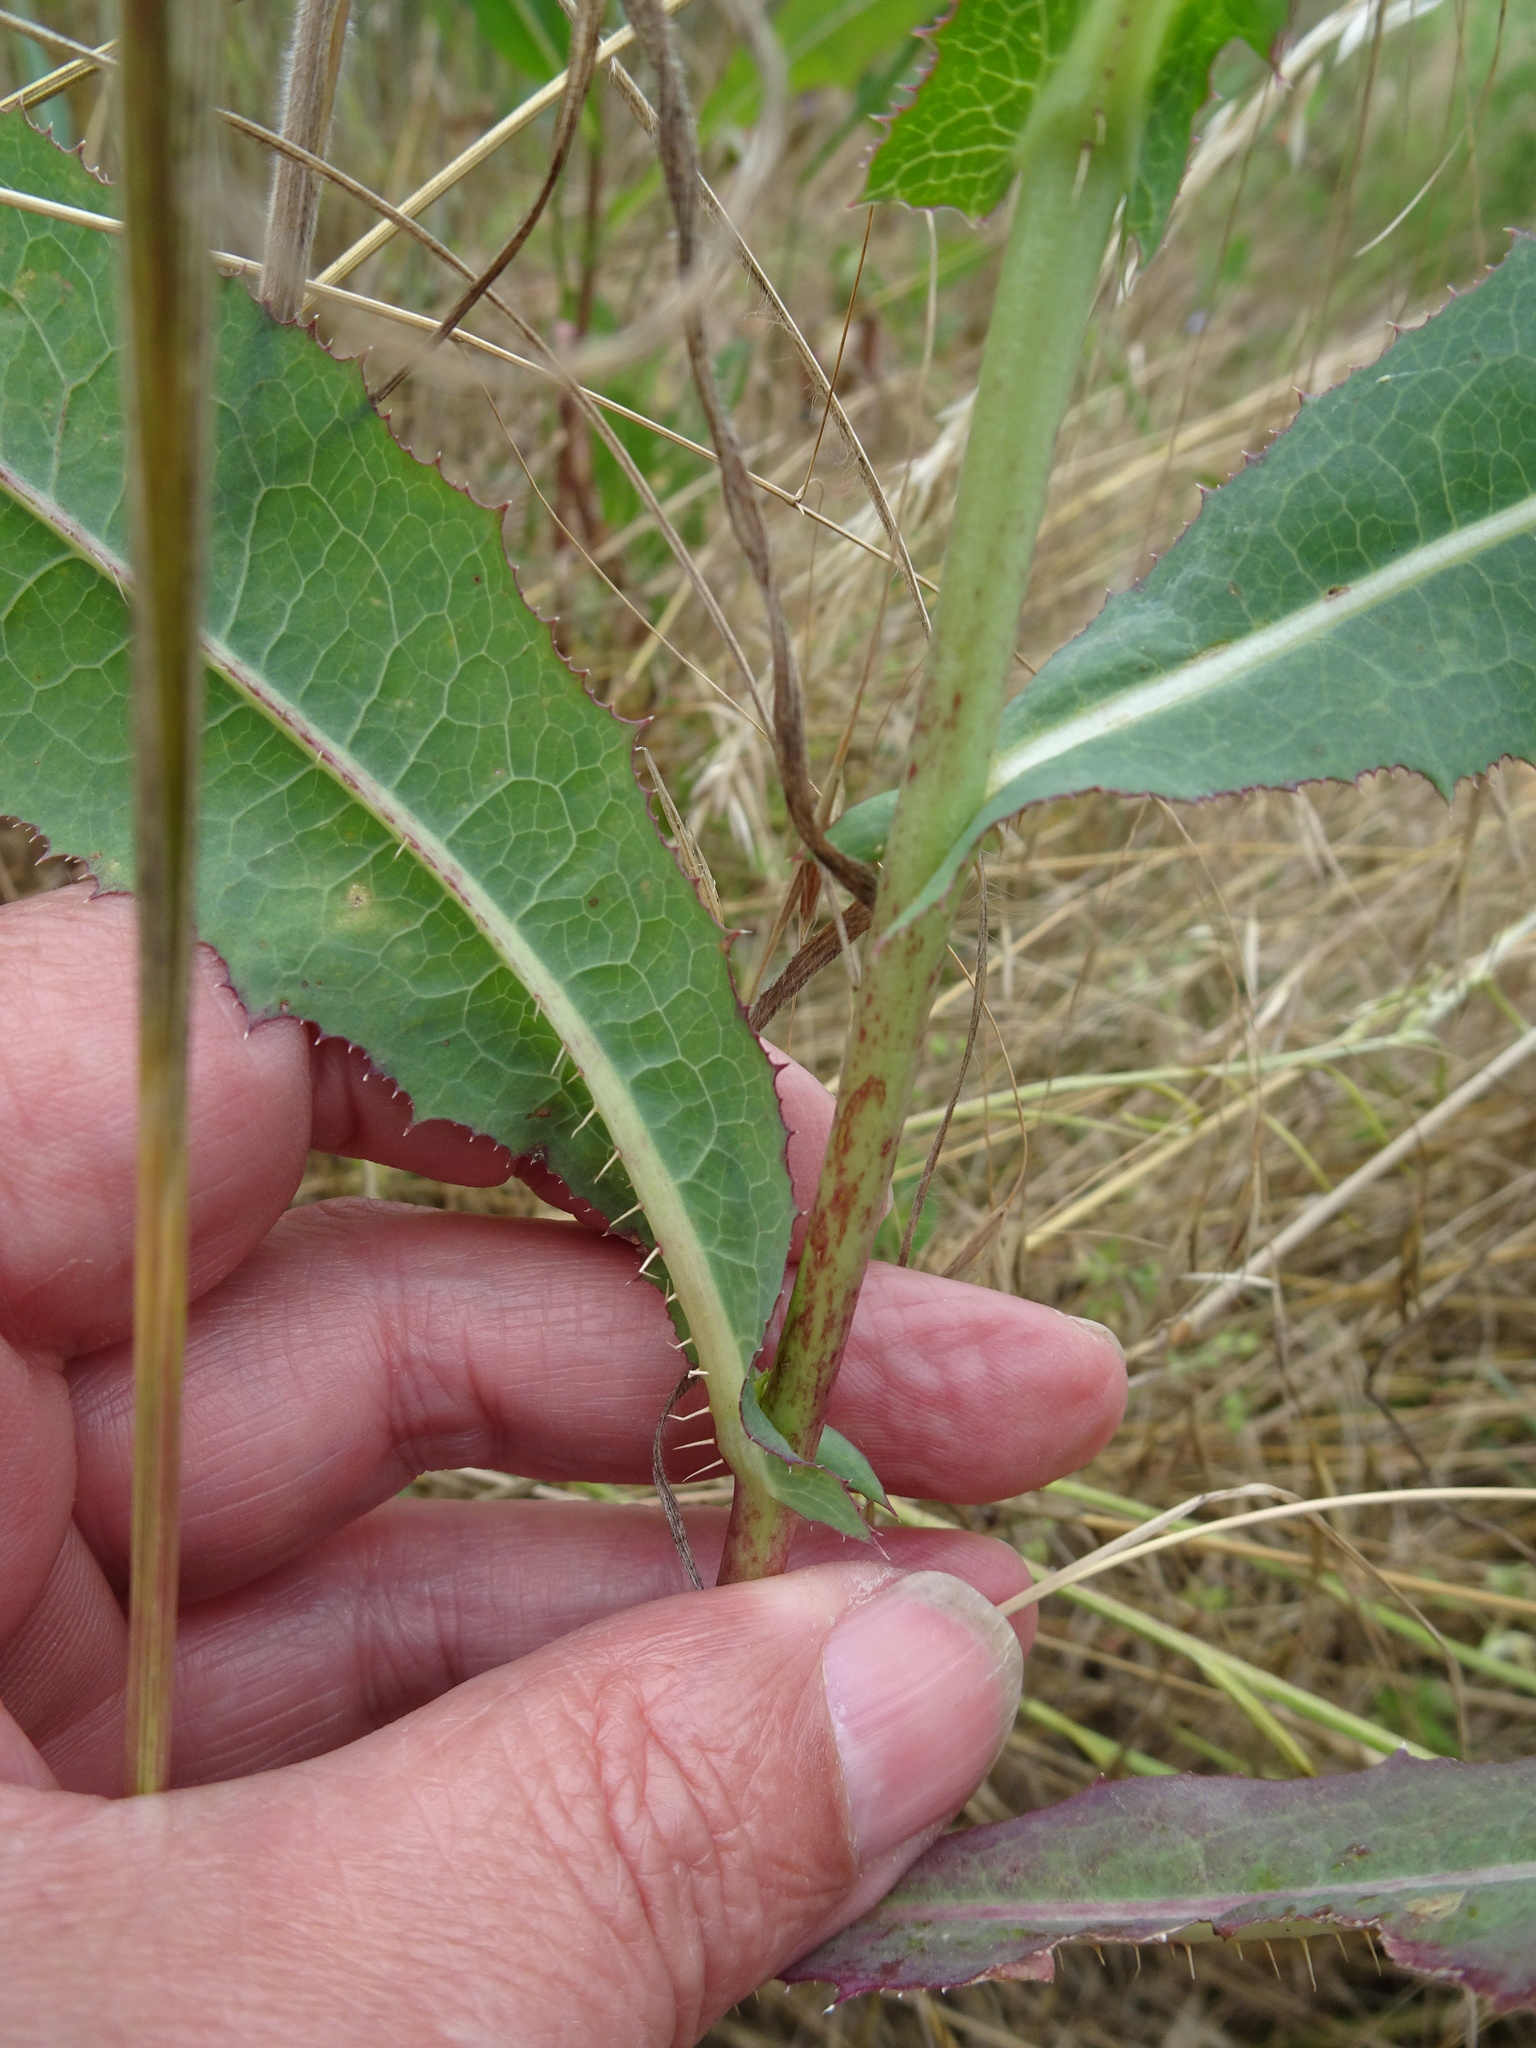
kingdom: Plantae
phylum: Tracheophyta
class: Magnoliopsida
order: Asterales
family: Asteraceae
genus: Lactuca
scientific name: Lactuca serriola
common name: Prickly lettuce
